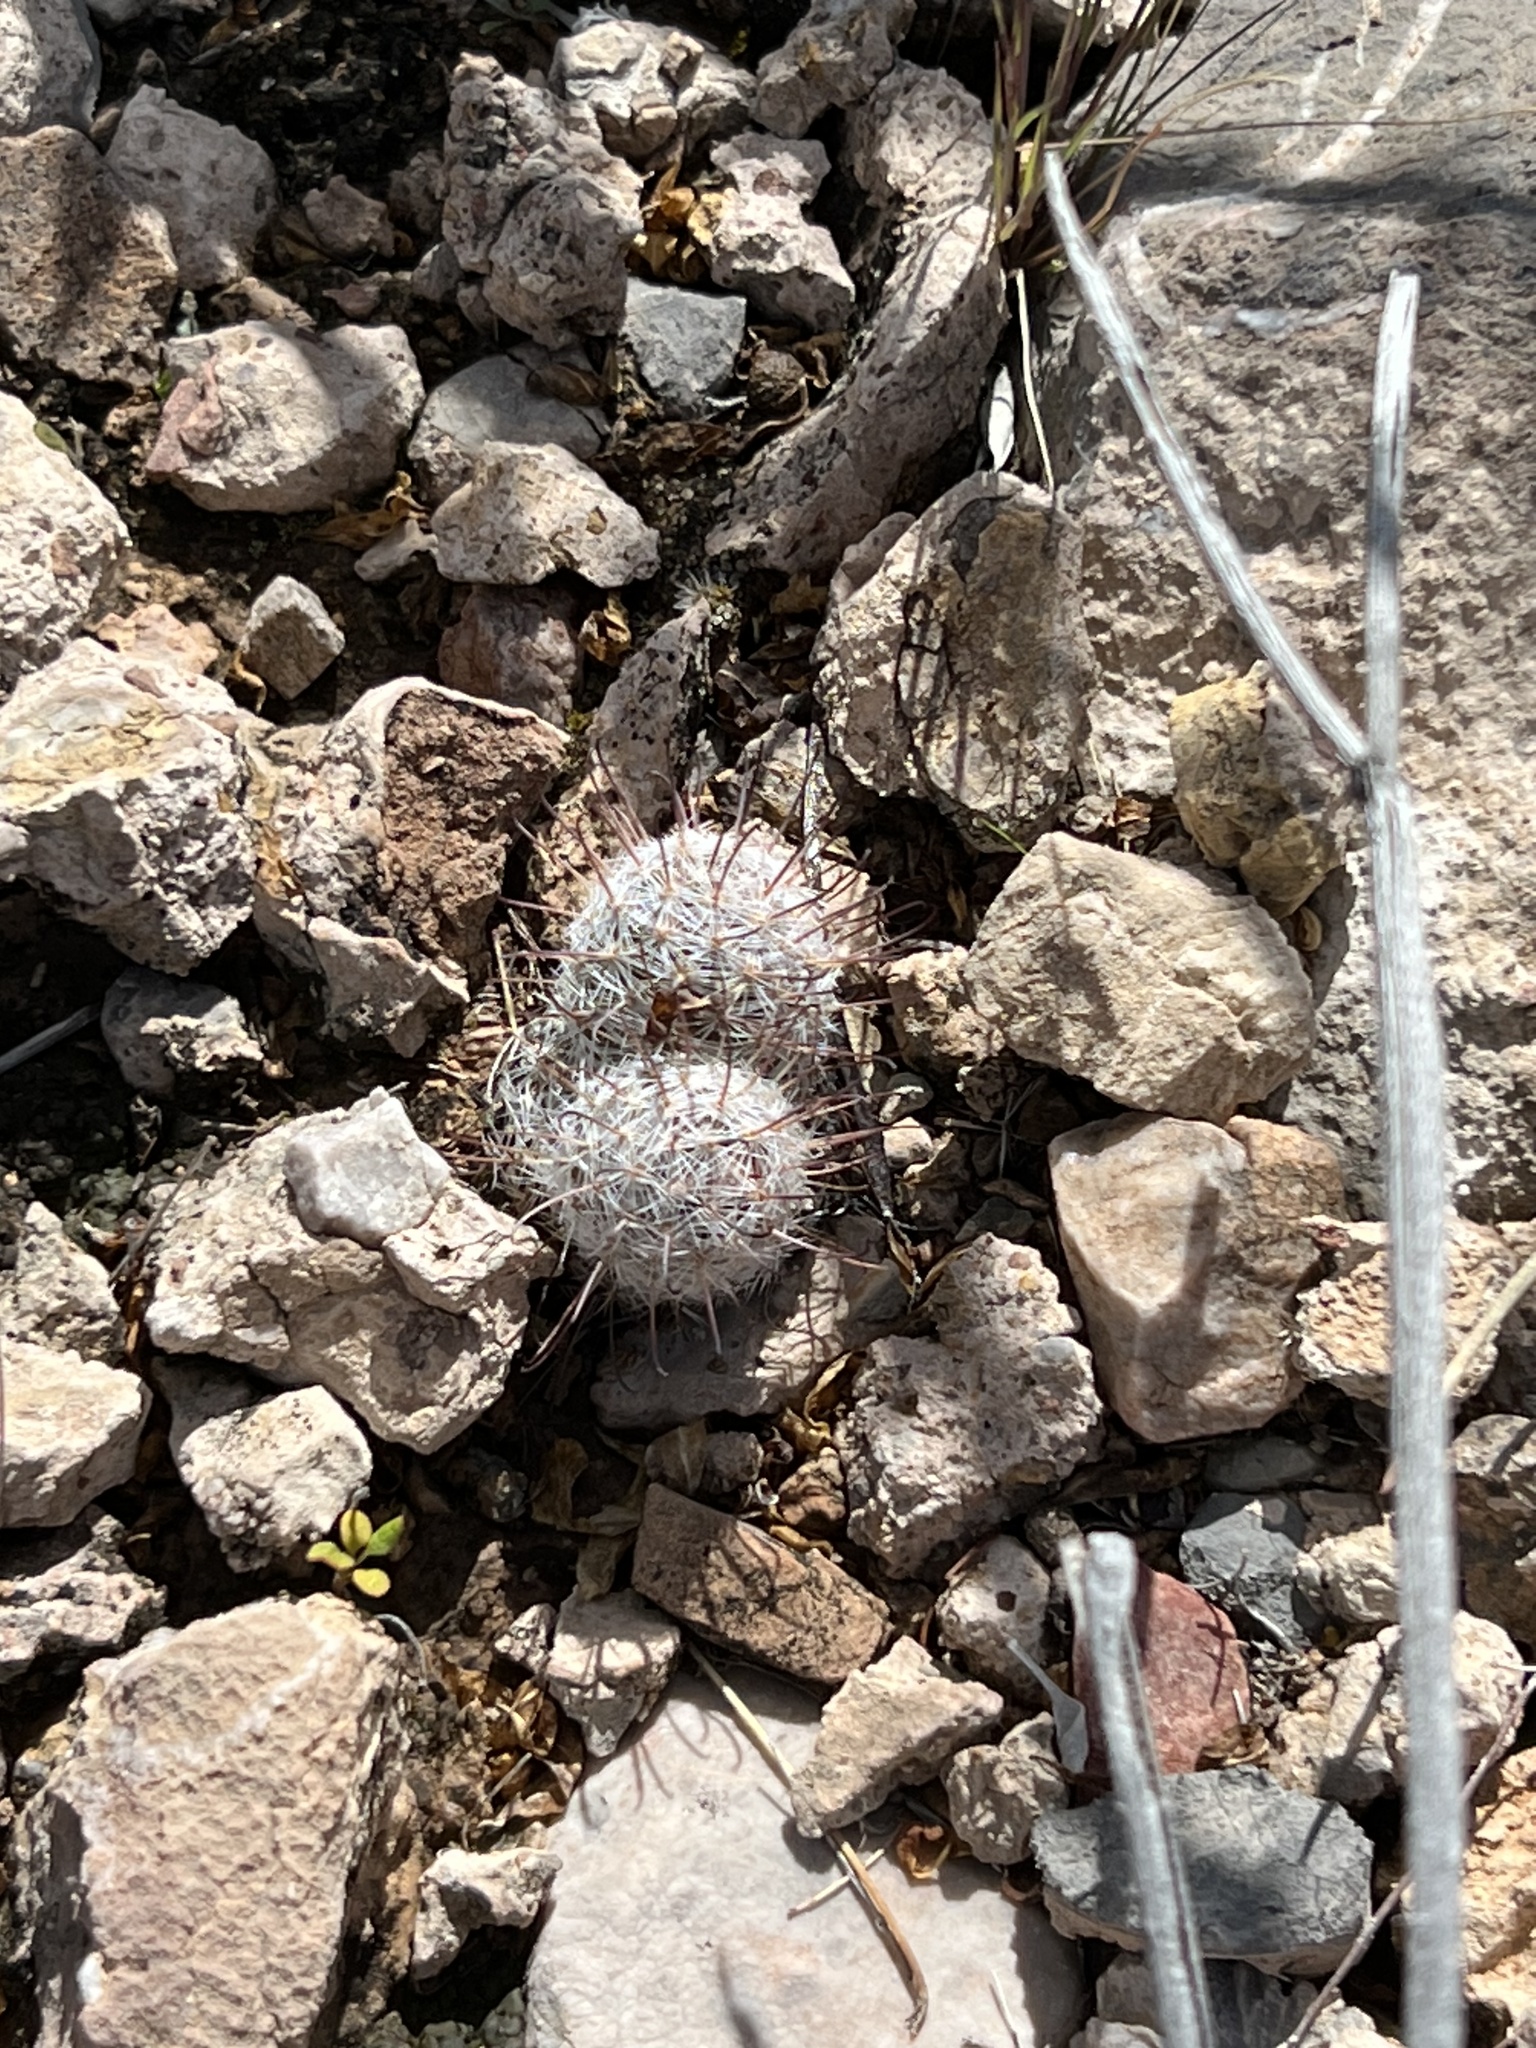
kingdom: Plantae
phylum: Tracheophyta
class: Magnoliopsida
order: Caryophyllales
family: Cactaceae
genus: Cochemiea
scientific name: Cochemiea grahamii
